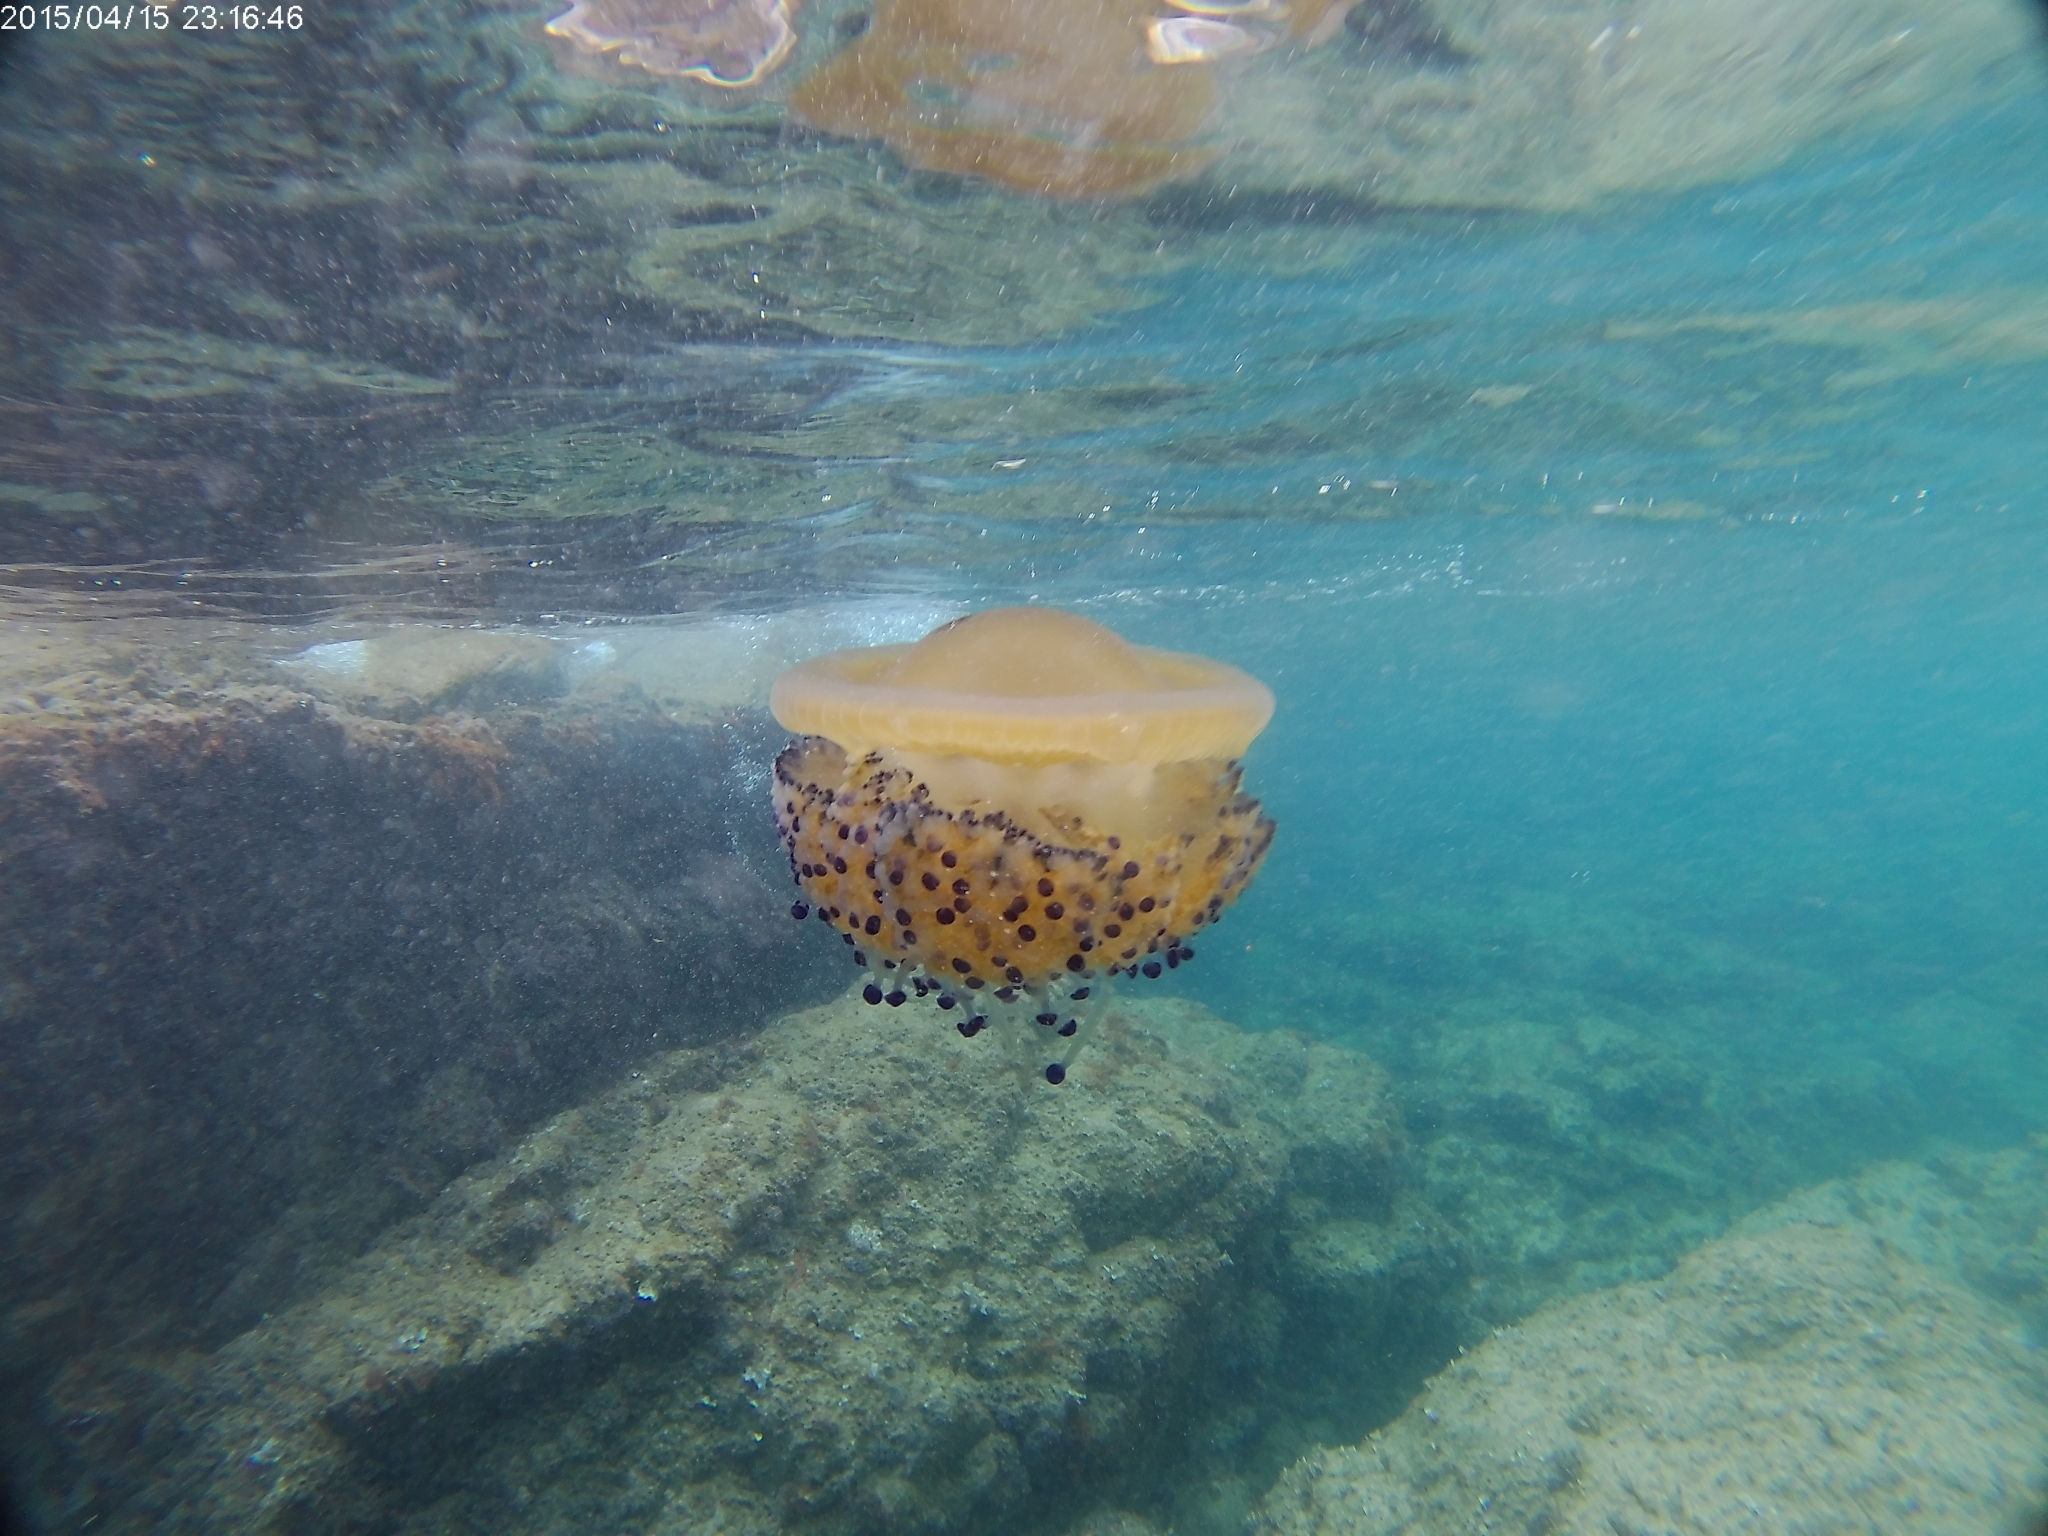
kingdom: Animalia
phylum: Cnidaria
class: Scyphozoa
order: Rhizostomeae
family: Cepheidae
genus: Cotylorhiza
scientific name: Cotylorhiza tuberculata
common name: Mediterranean jelly
